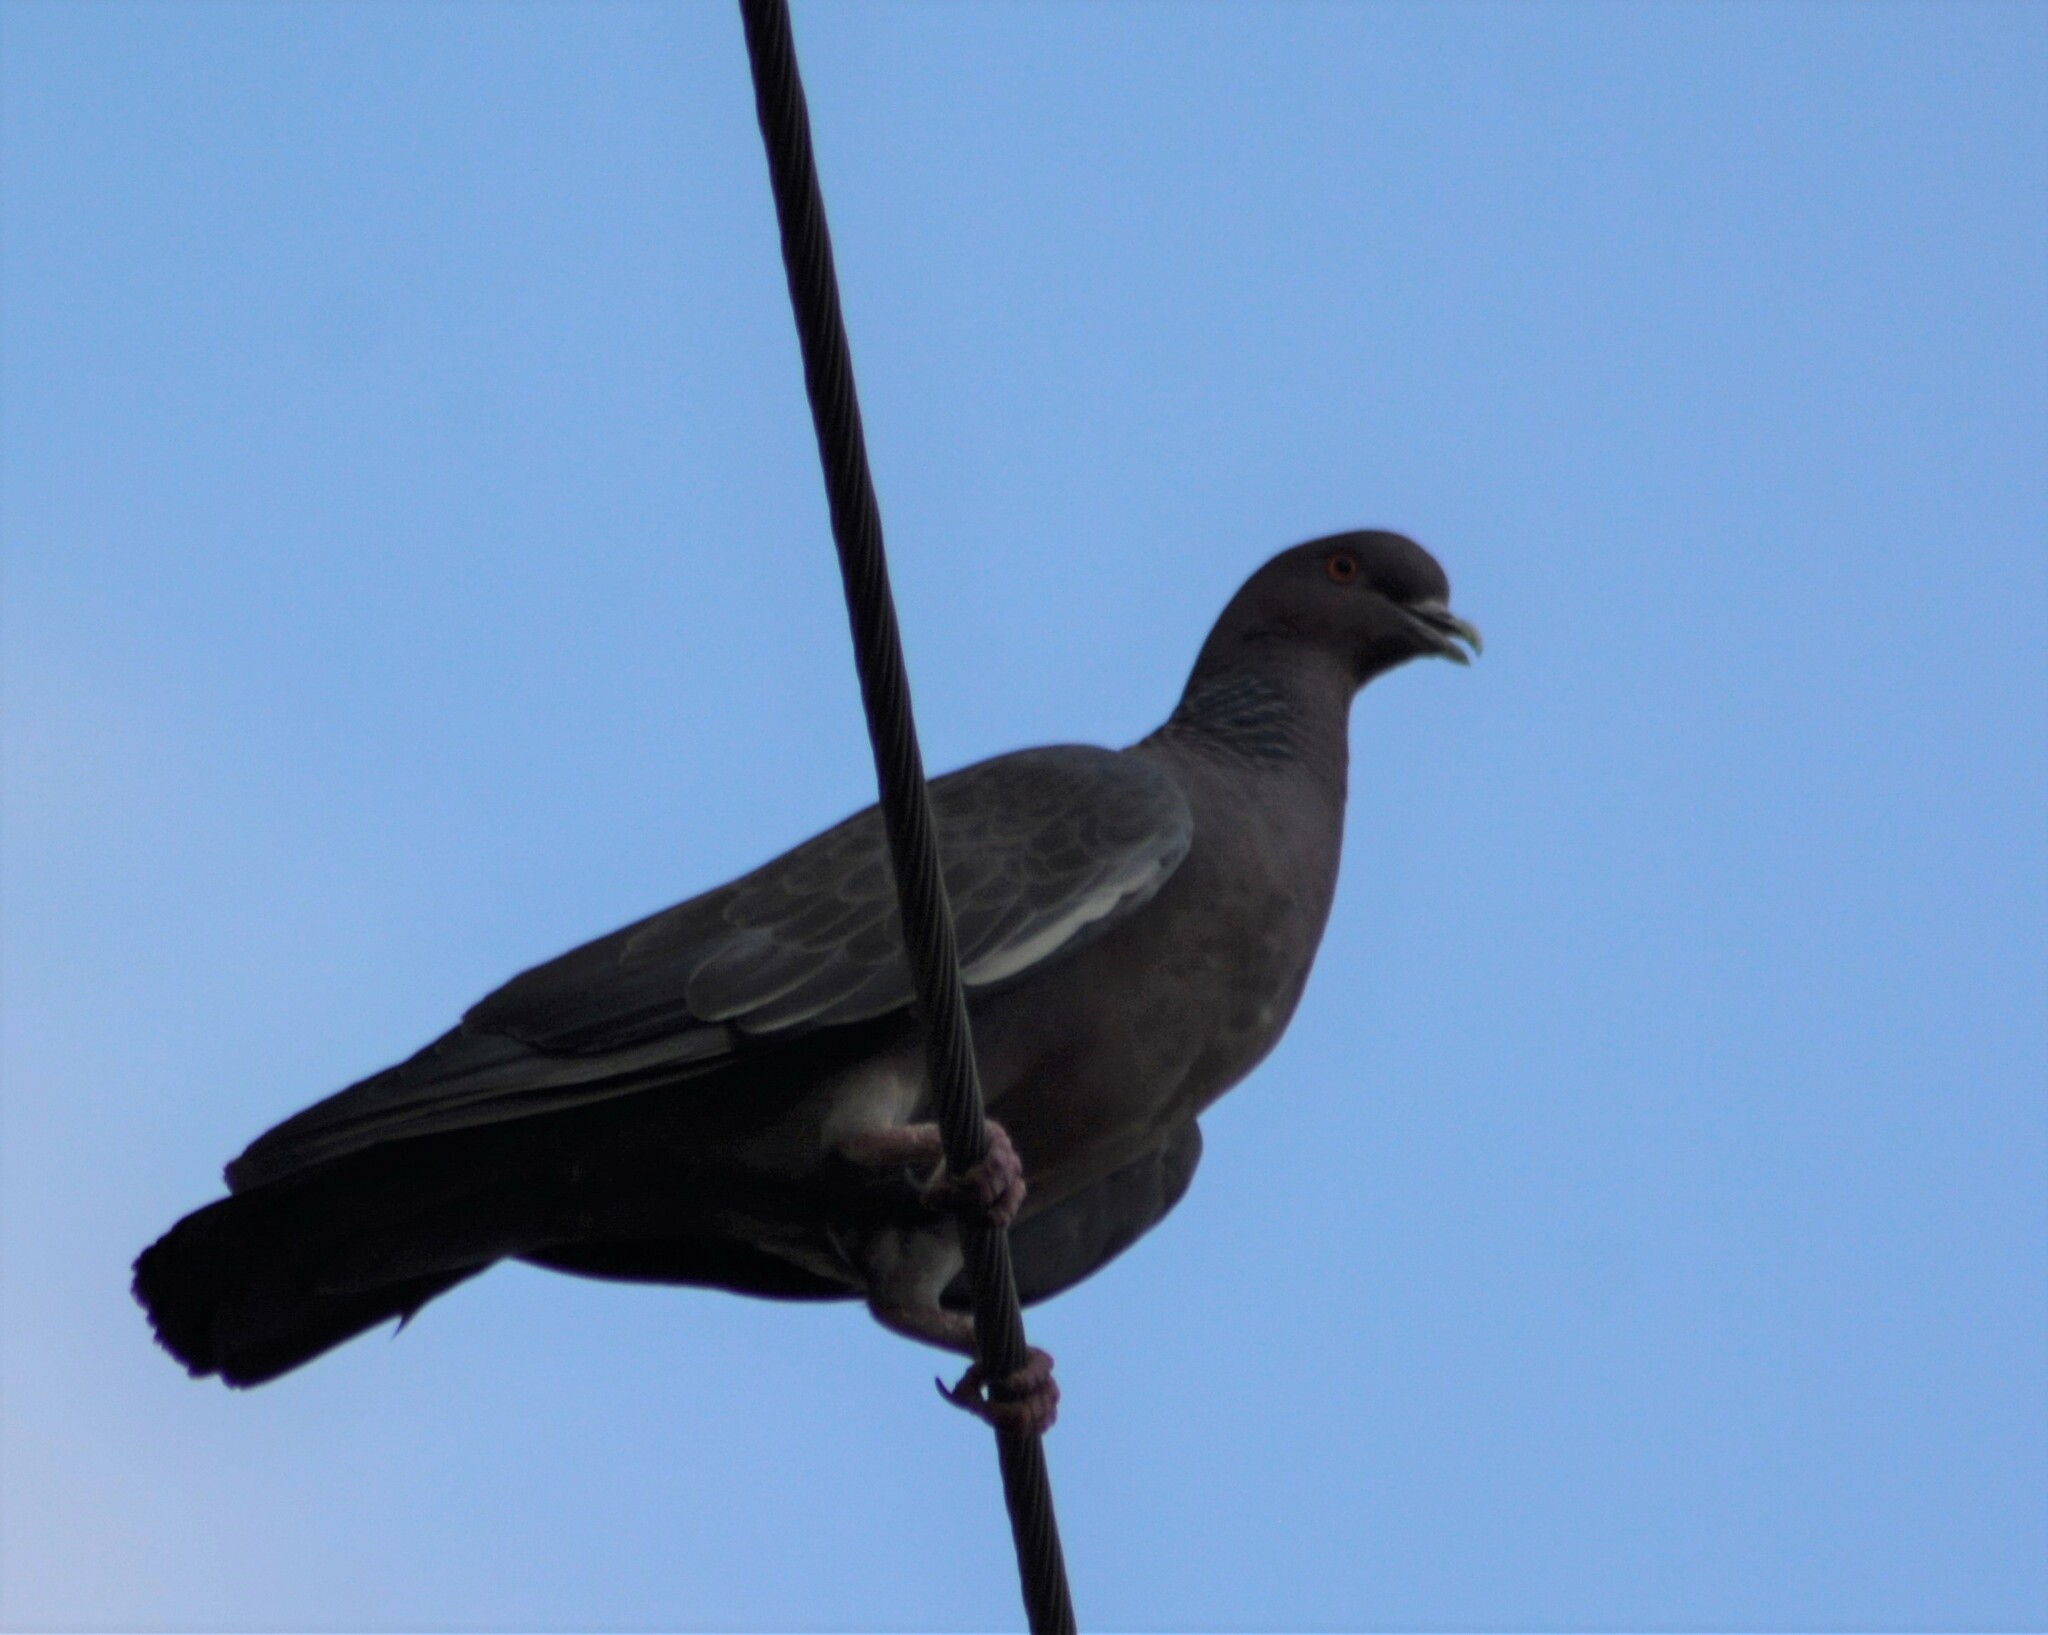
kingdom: Animalia
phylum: Chordata
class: Aves
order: Columbiformes
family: Columbidae
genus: Patagioenas
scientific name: Patagioenas picazuro
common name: Picazuro pigeon
